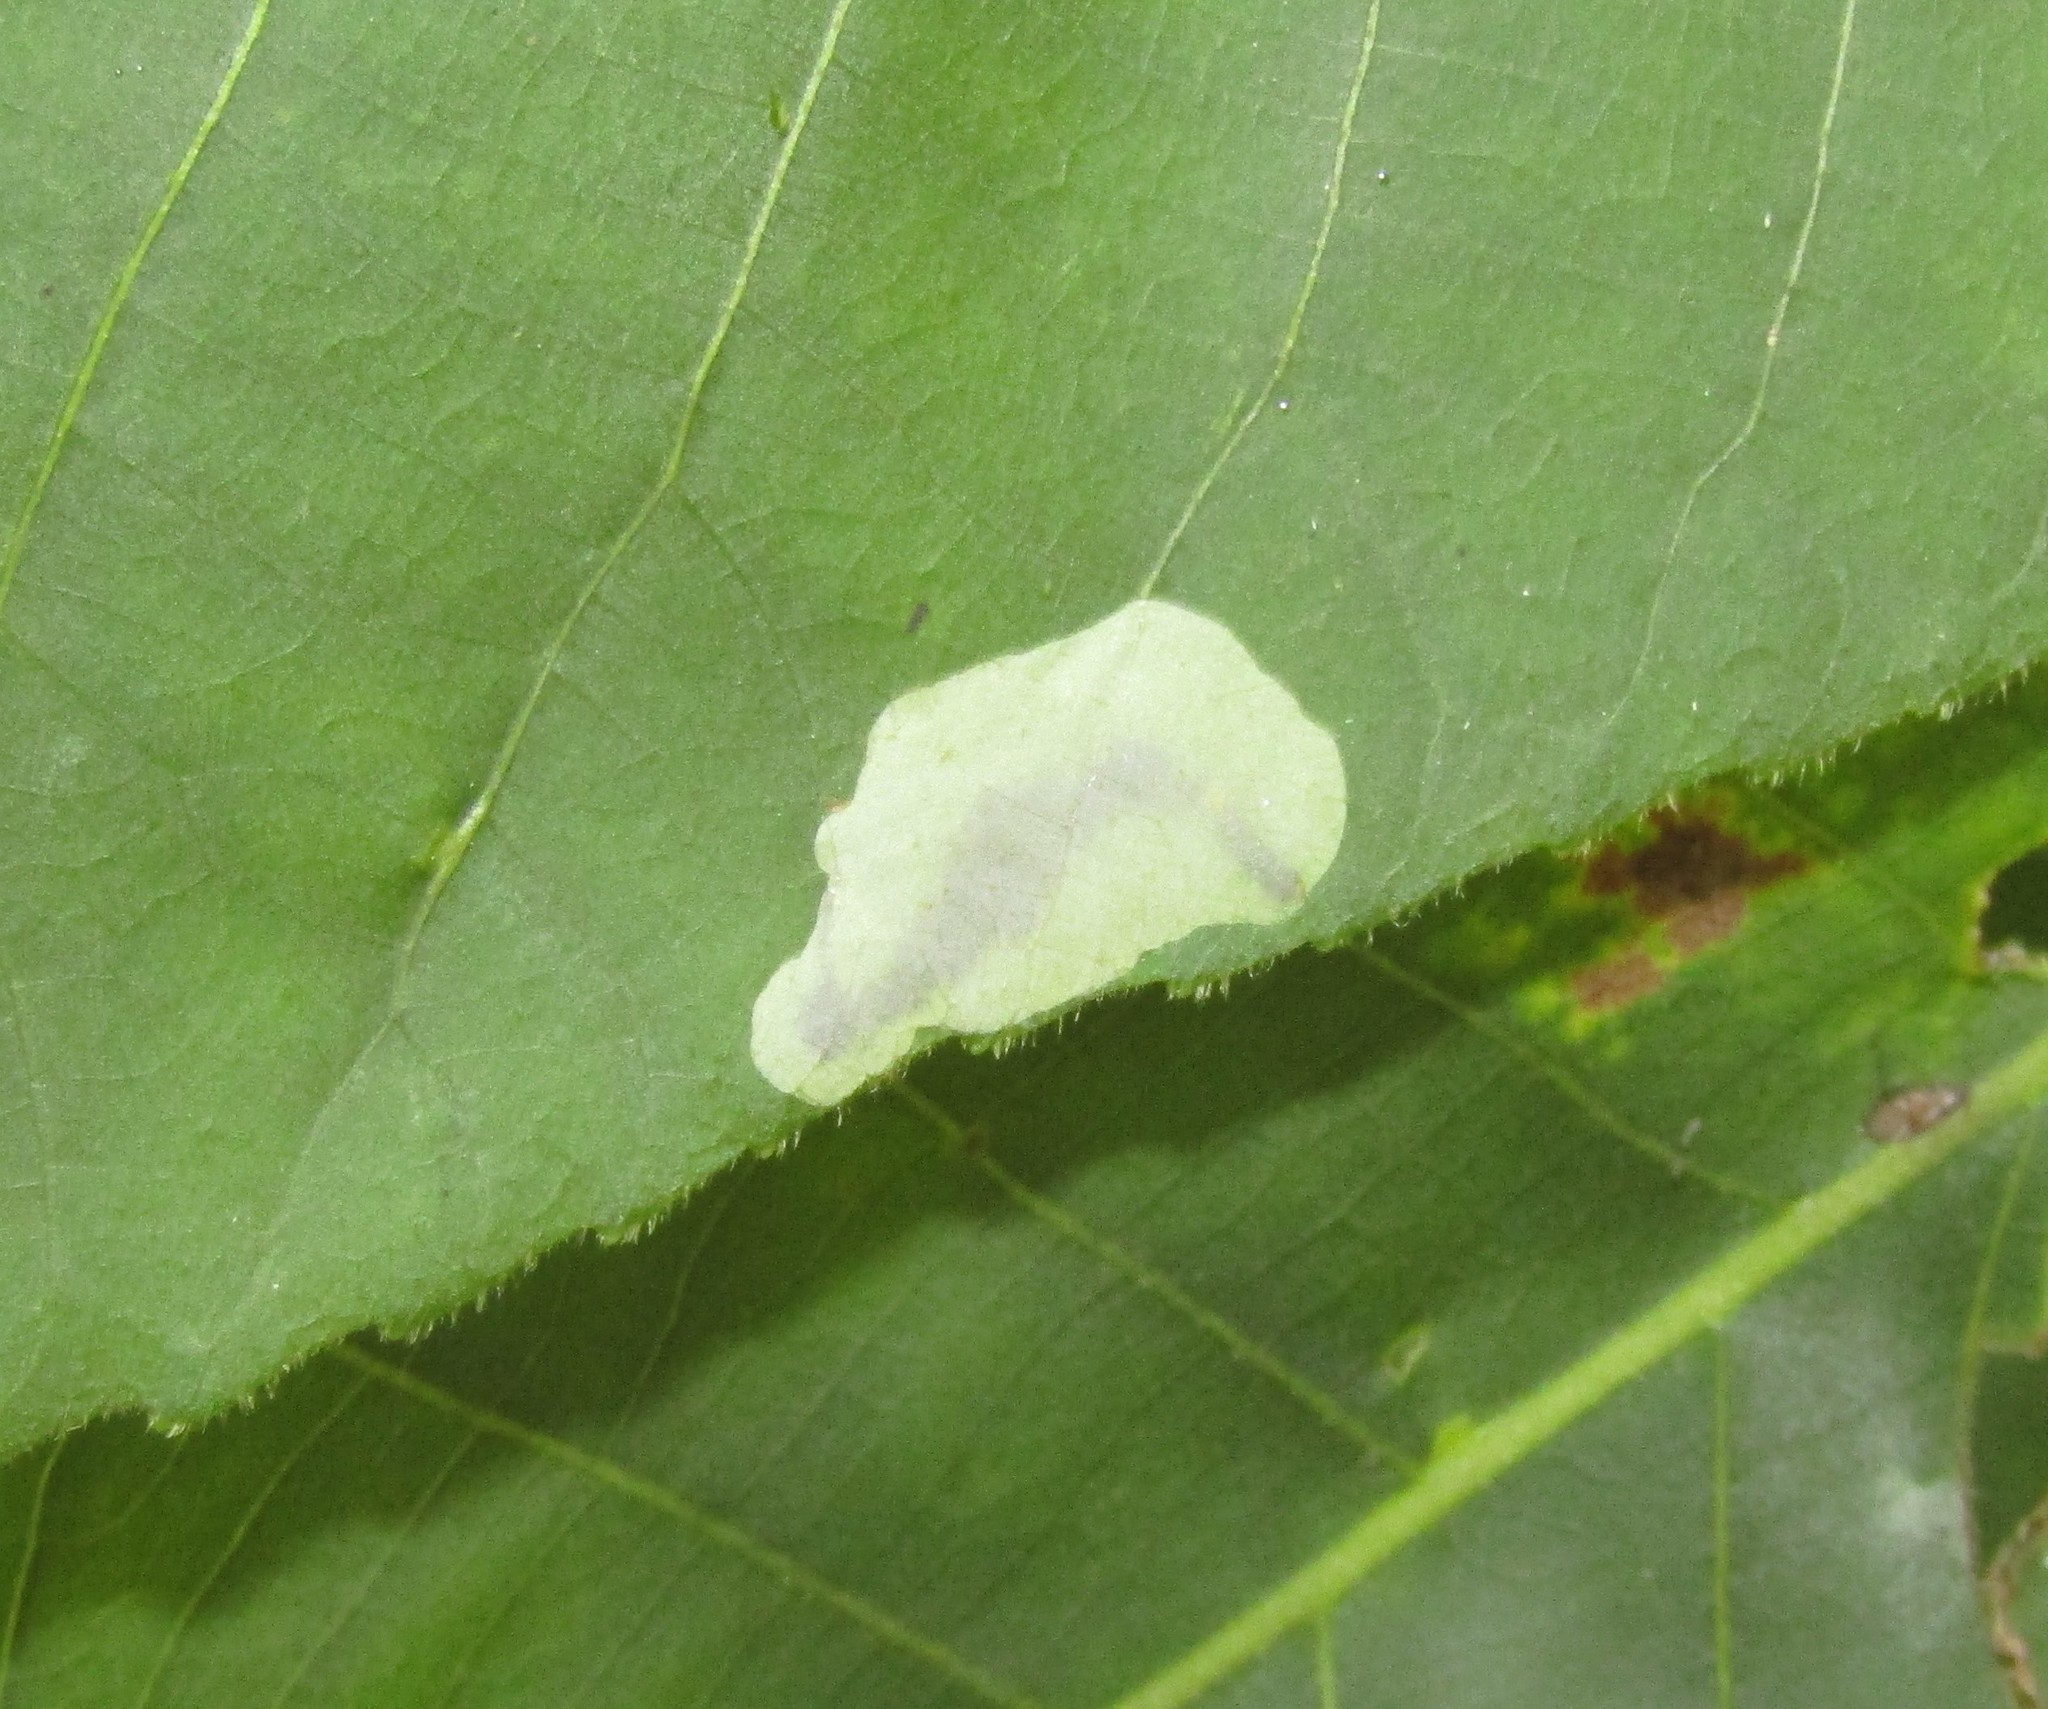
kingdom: Animalia
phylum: Arthropoda
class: Insecta
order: Lepidoptera
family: Gracillariidae
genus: Cameraria
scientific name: Cameraria caryaefoliella
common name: Pecan leafminer moth
